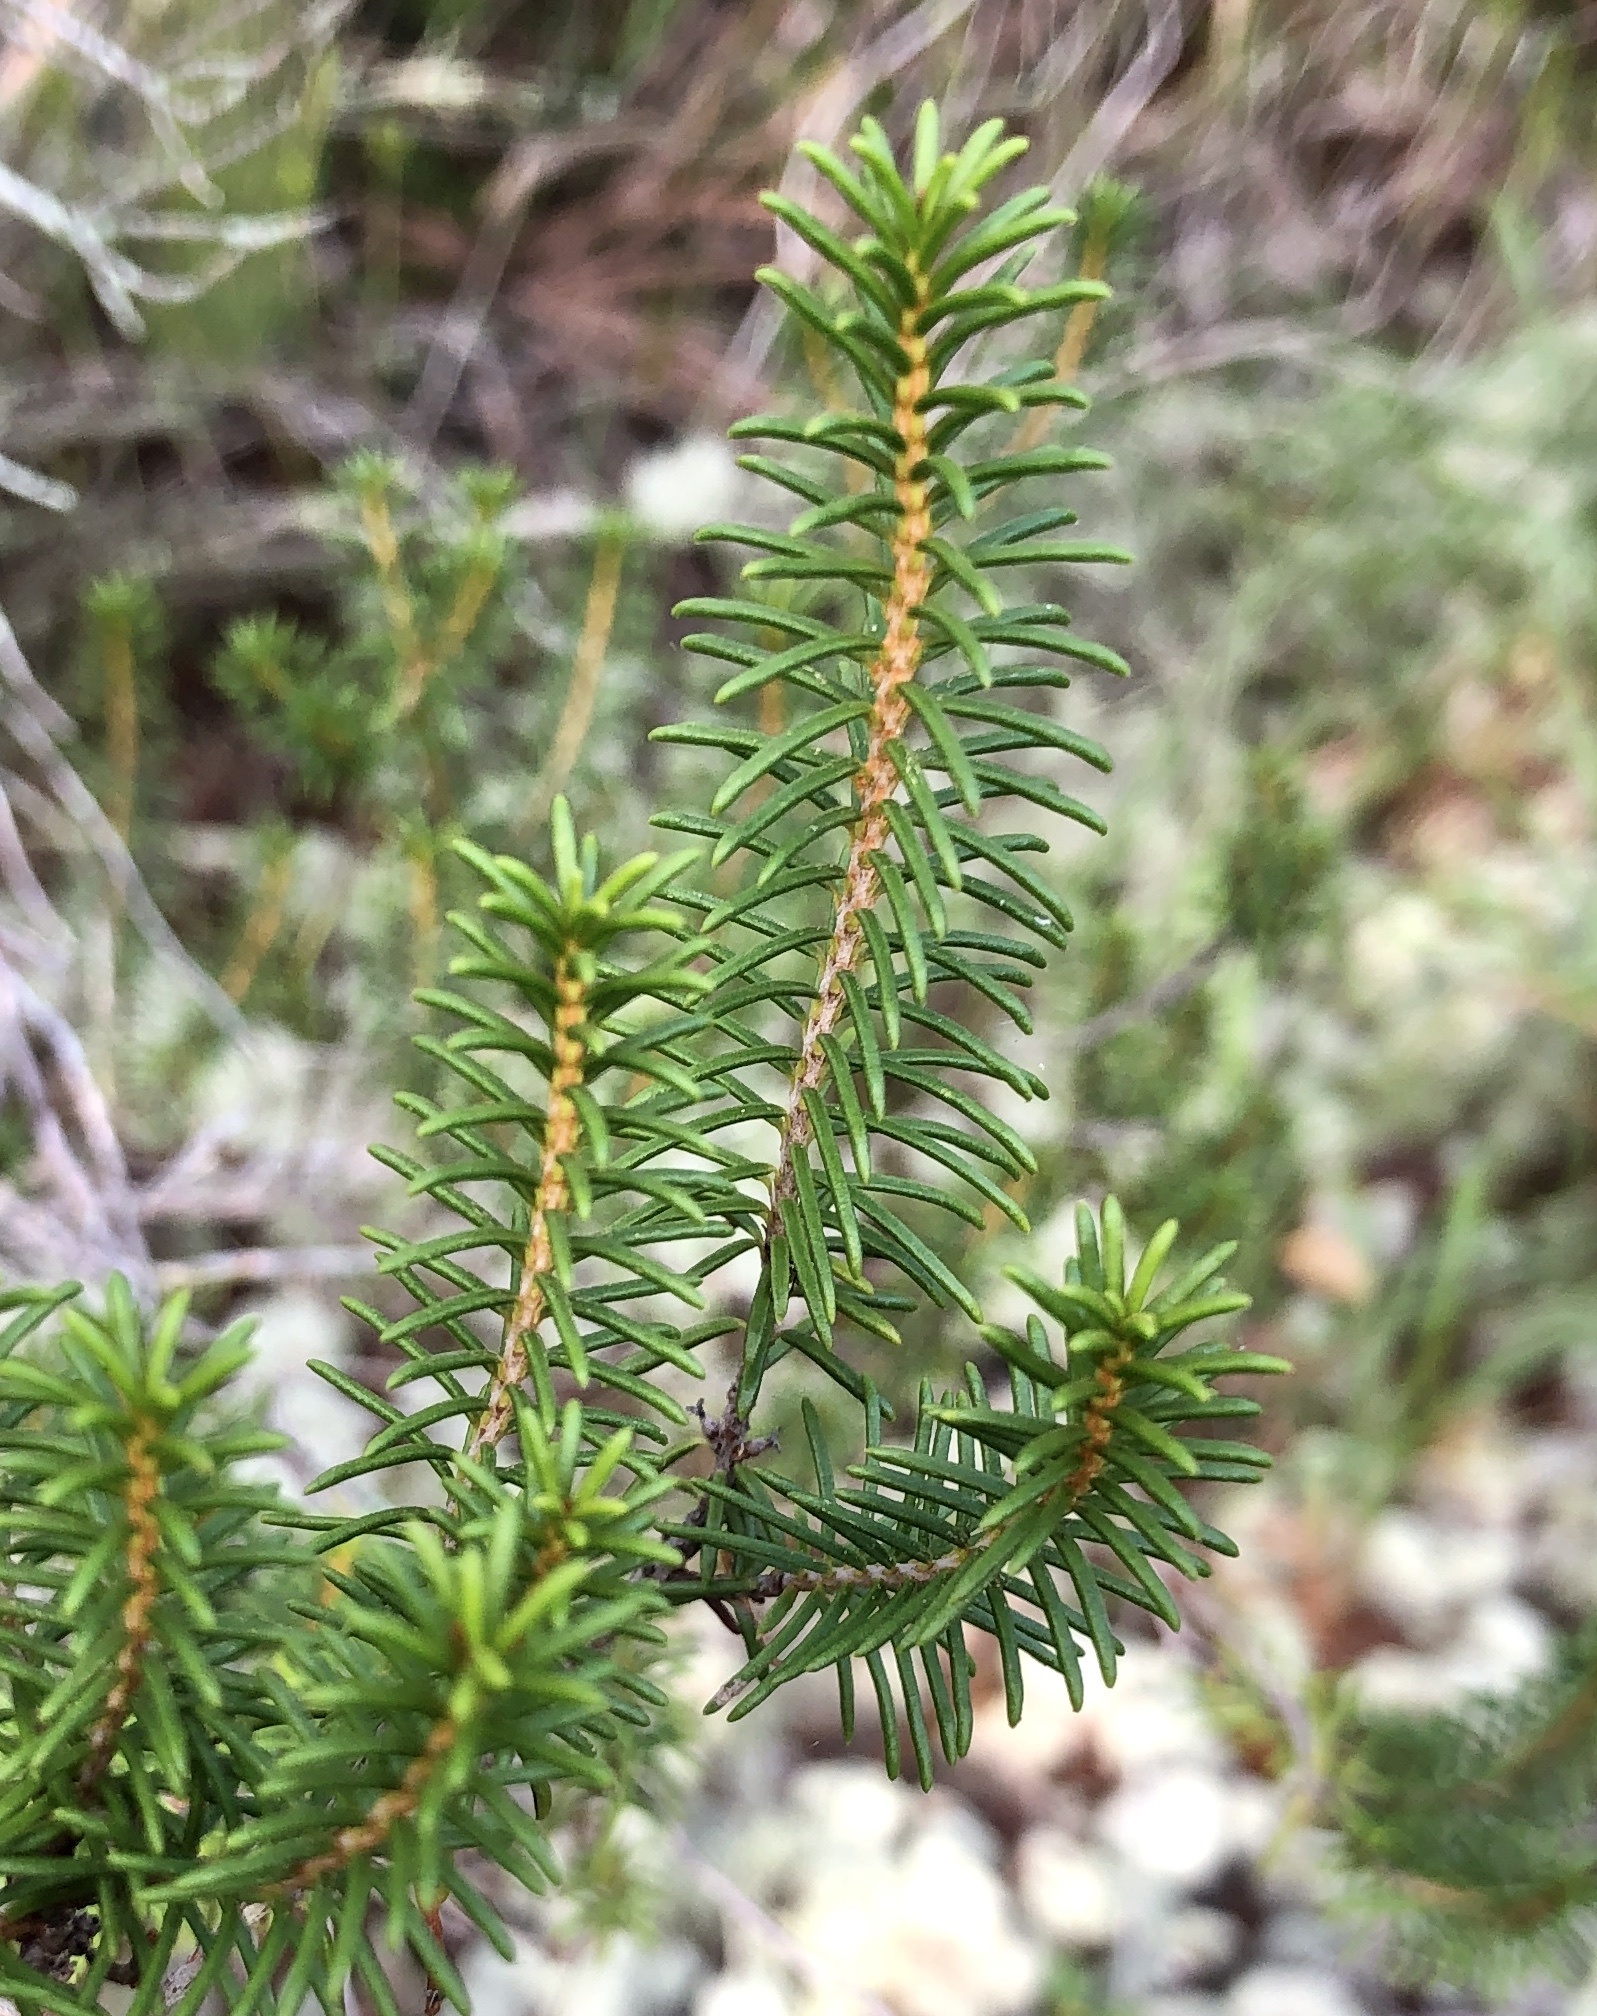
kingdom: Plantae
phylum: Tracheophyta
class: Magnoliopsida
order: Ericales
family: Ericaceae
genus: Ceratiola
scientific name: Ceratiola ericoides
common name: Sandhill-rosemary
